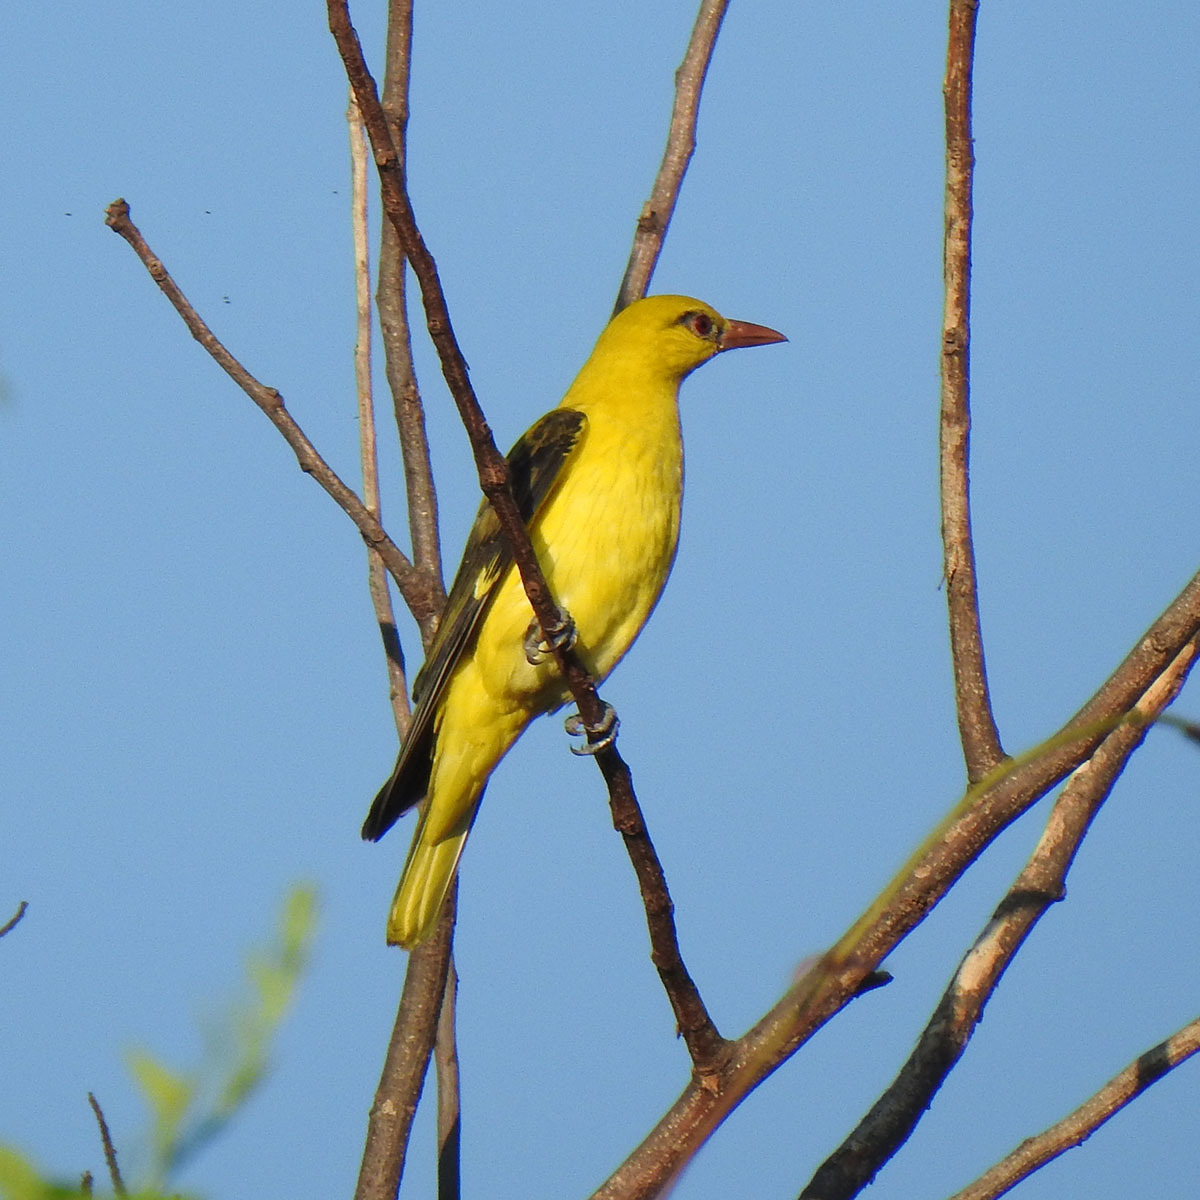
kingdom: Animalia
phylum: Chordata
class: Aves
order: Passeriformes
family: Oriolidae
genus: Oriolus
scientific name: Oriolus kundoo
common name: Indian golden oriole
